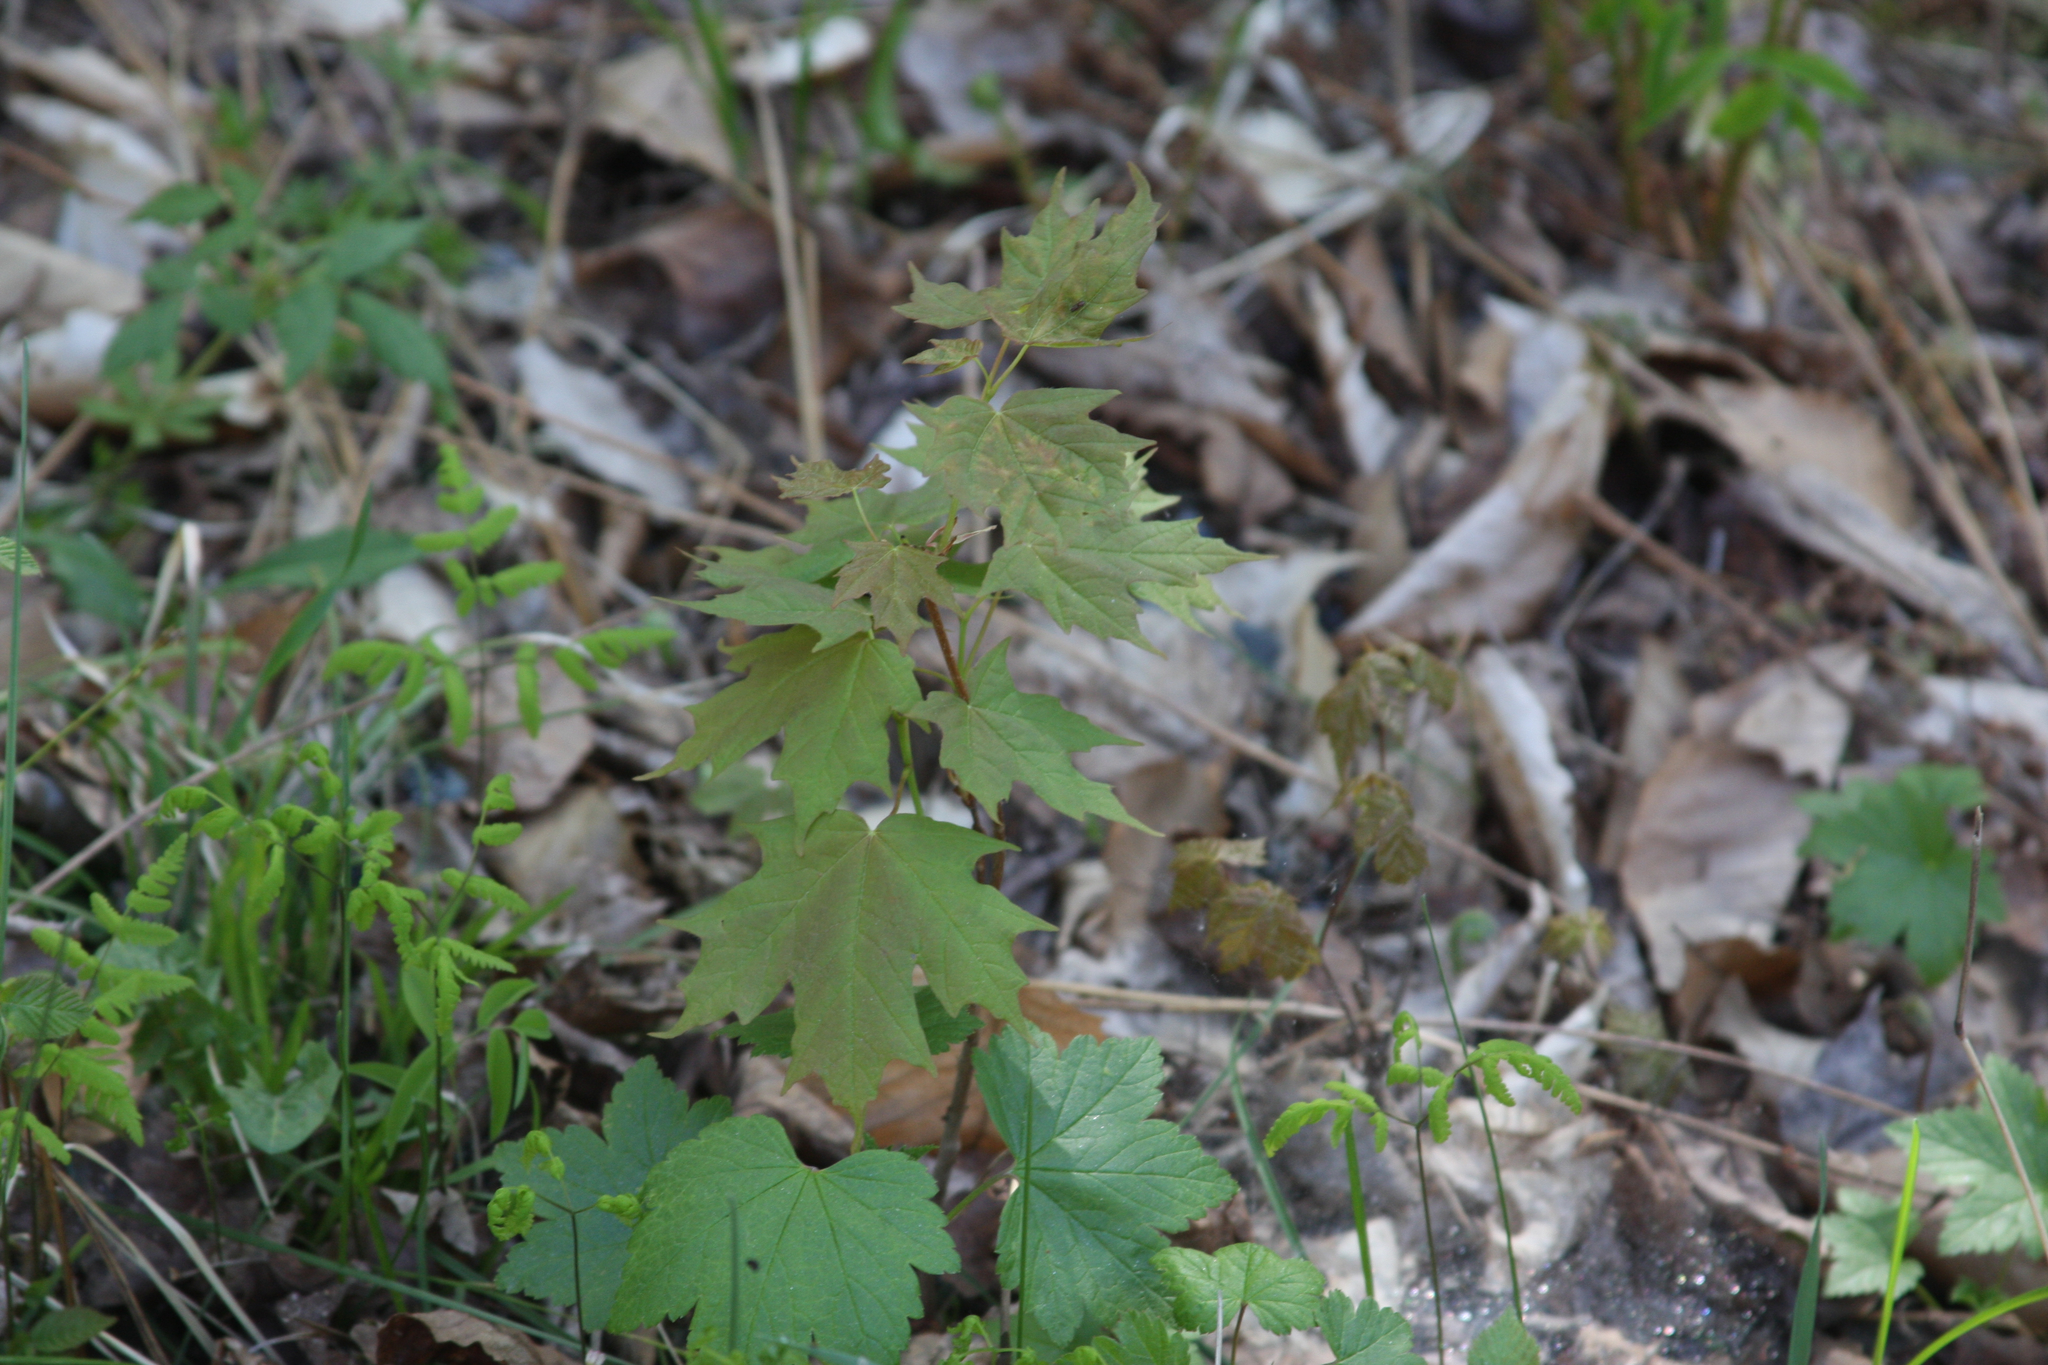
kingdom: Plantae
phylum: Tracheophyta
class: Magnoliopsida
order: Sapindales
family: Sapindaceae
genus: Acer
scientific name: Acer saccharum
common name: Sugar maple
